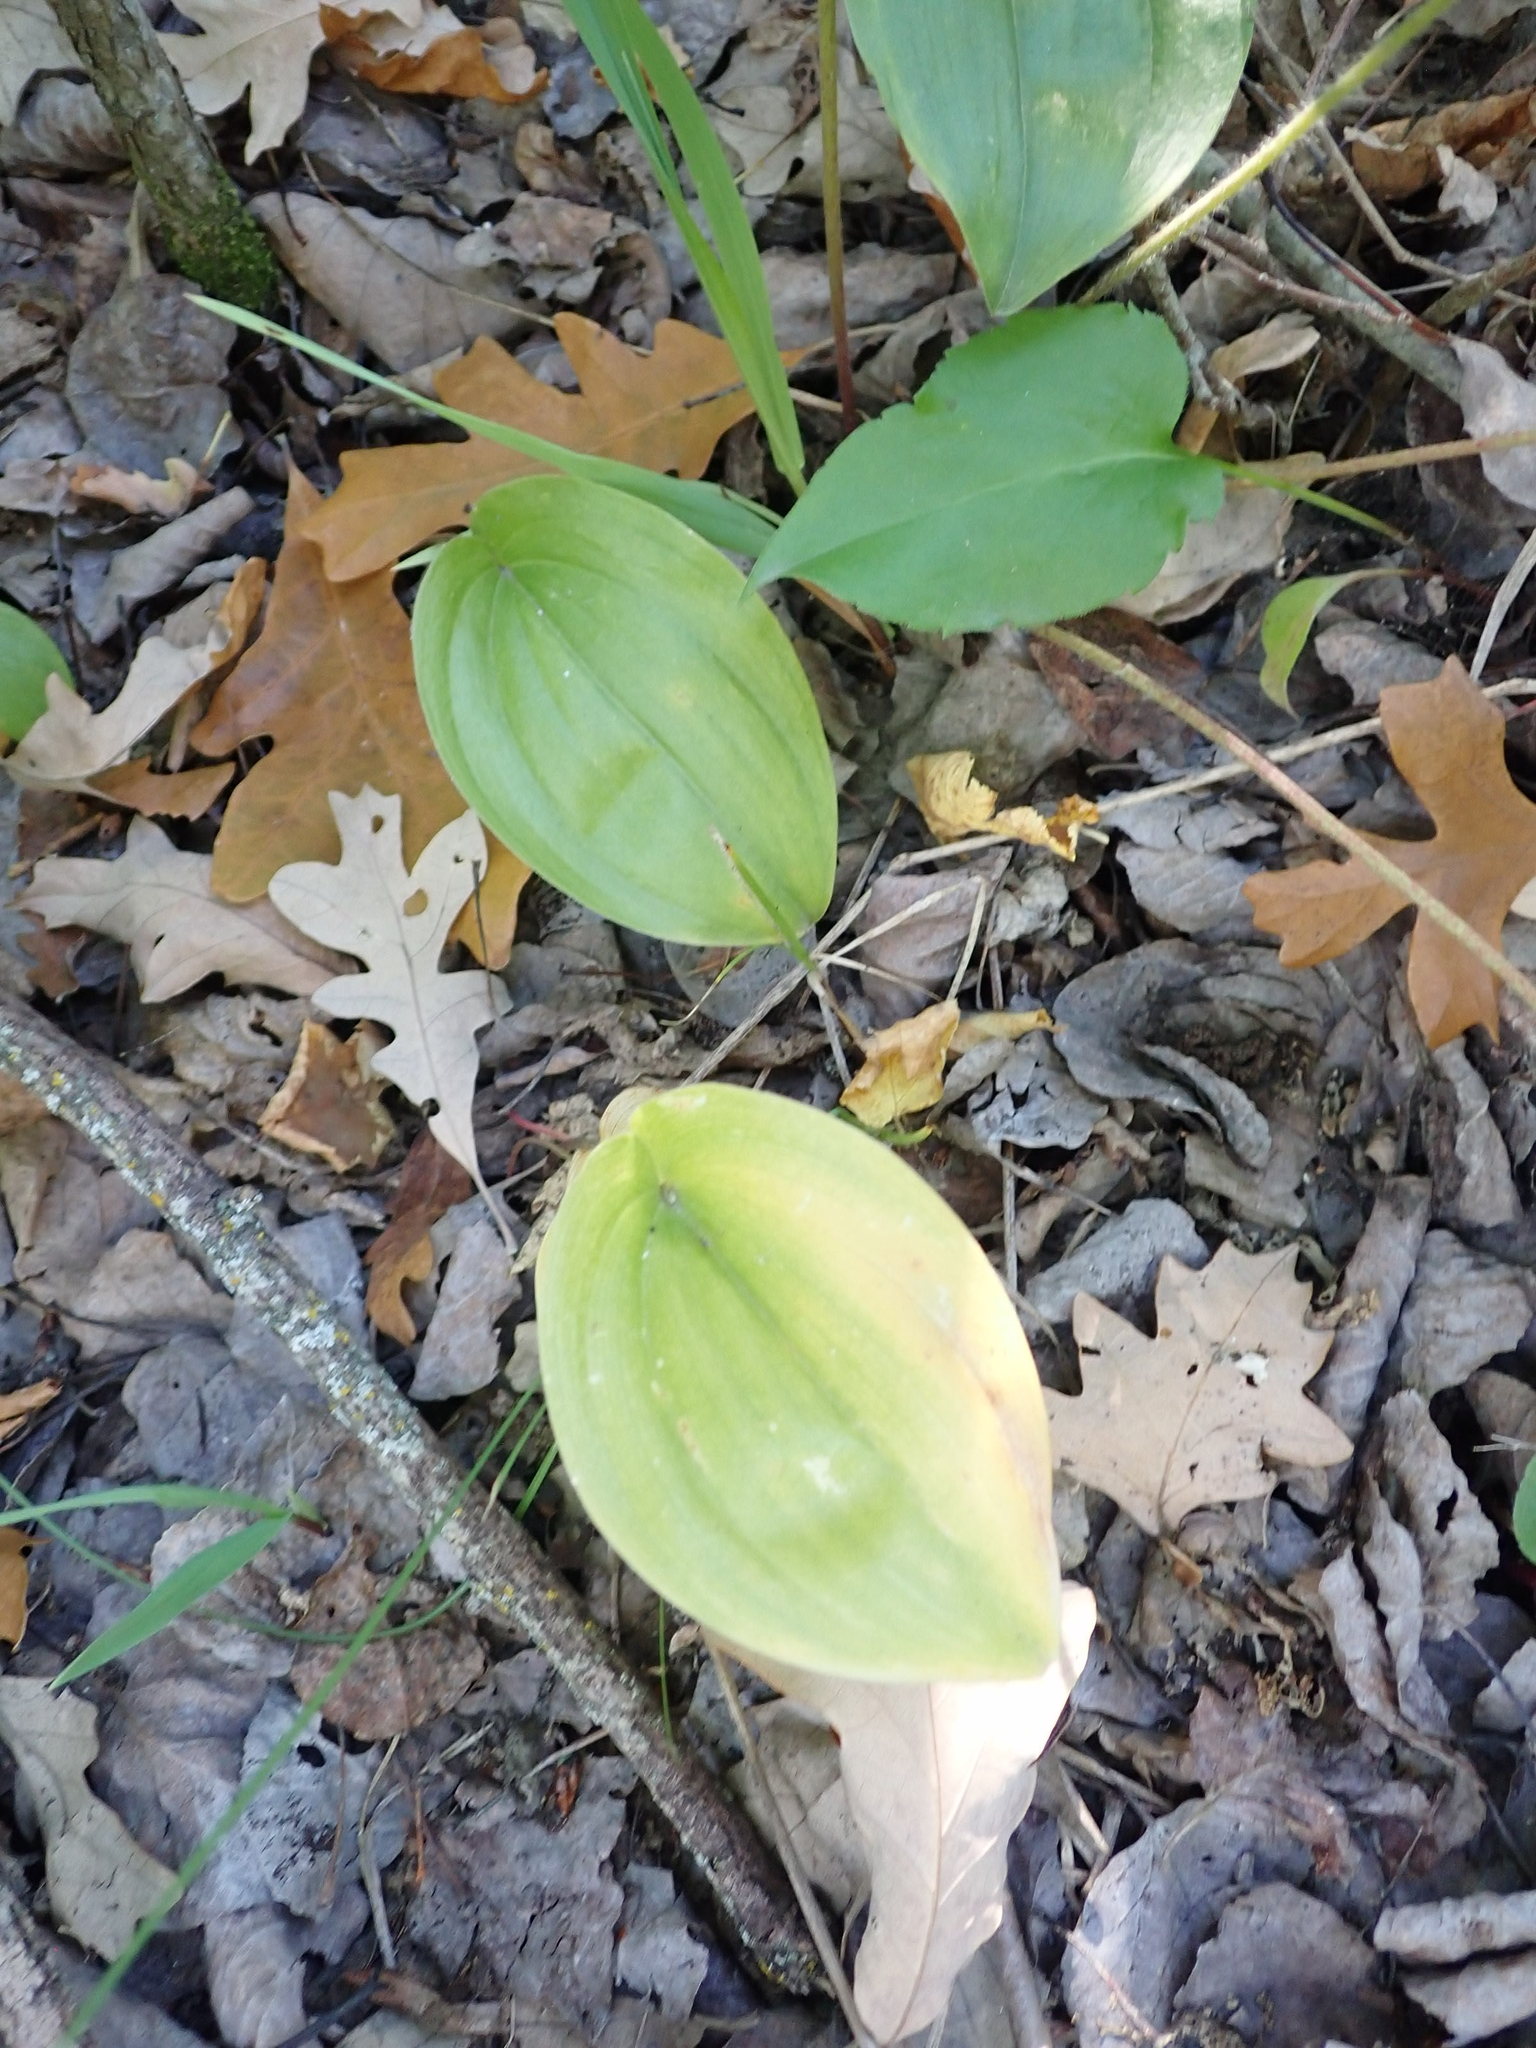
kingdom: Plantae
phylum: Tracheophyta
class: Liliopsida
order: Asparagales
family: Asparagaceae
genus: Maianthemum
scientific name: Maianthemum canadense
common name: False lily-of-the-valley
